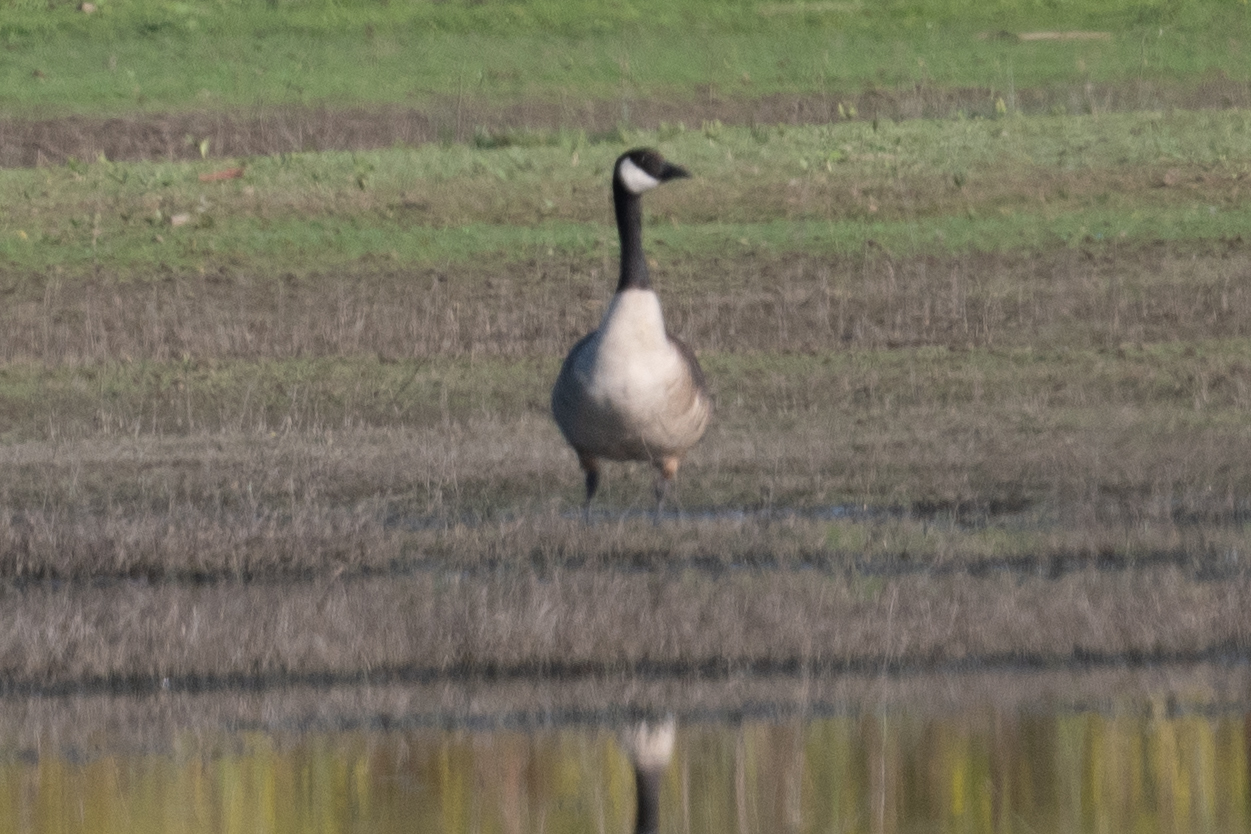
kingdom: Animalia
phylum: Chordata
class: Aves
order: Anseriformes
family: Anatidae
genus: Branta
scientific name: Branta canadensis
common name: Canada goose
